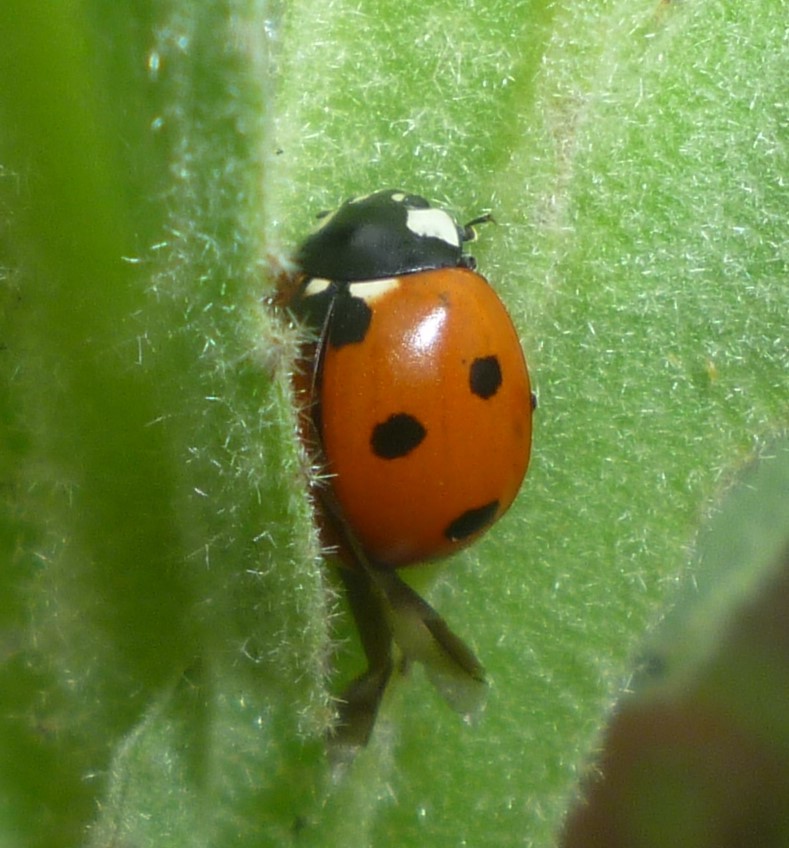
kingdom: Animalia
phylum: Arthropoda
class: Insecta
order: Coleoptera
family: Coccinellidae
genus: Coccinella
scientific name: Coccinella septempunctata
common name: Sevenspotted lady beetle
